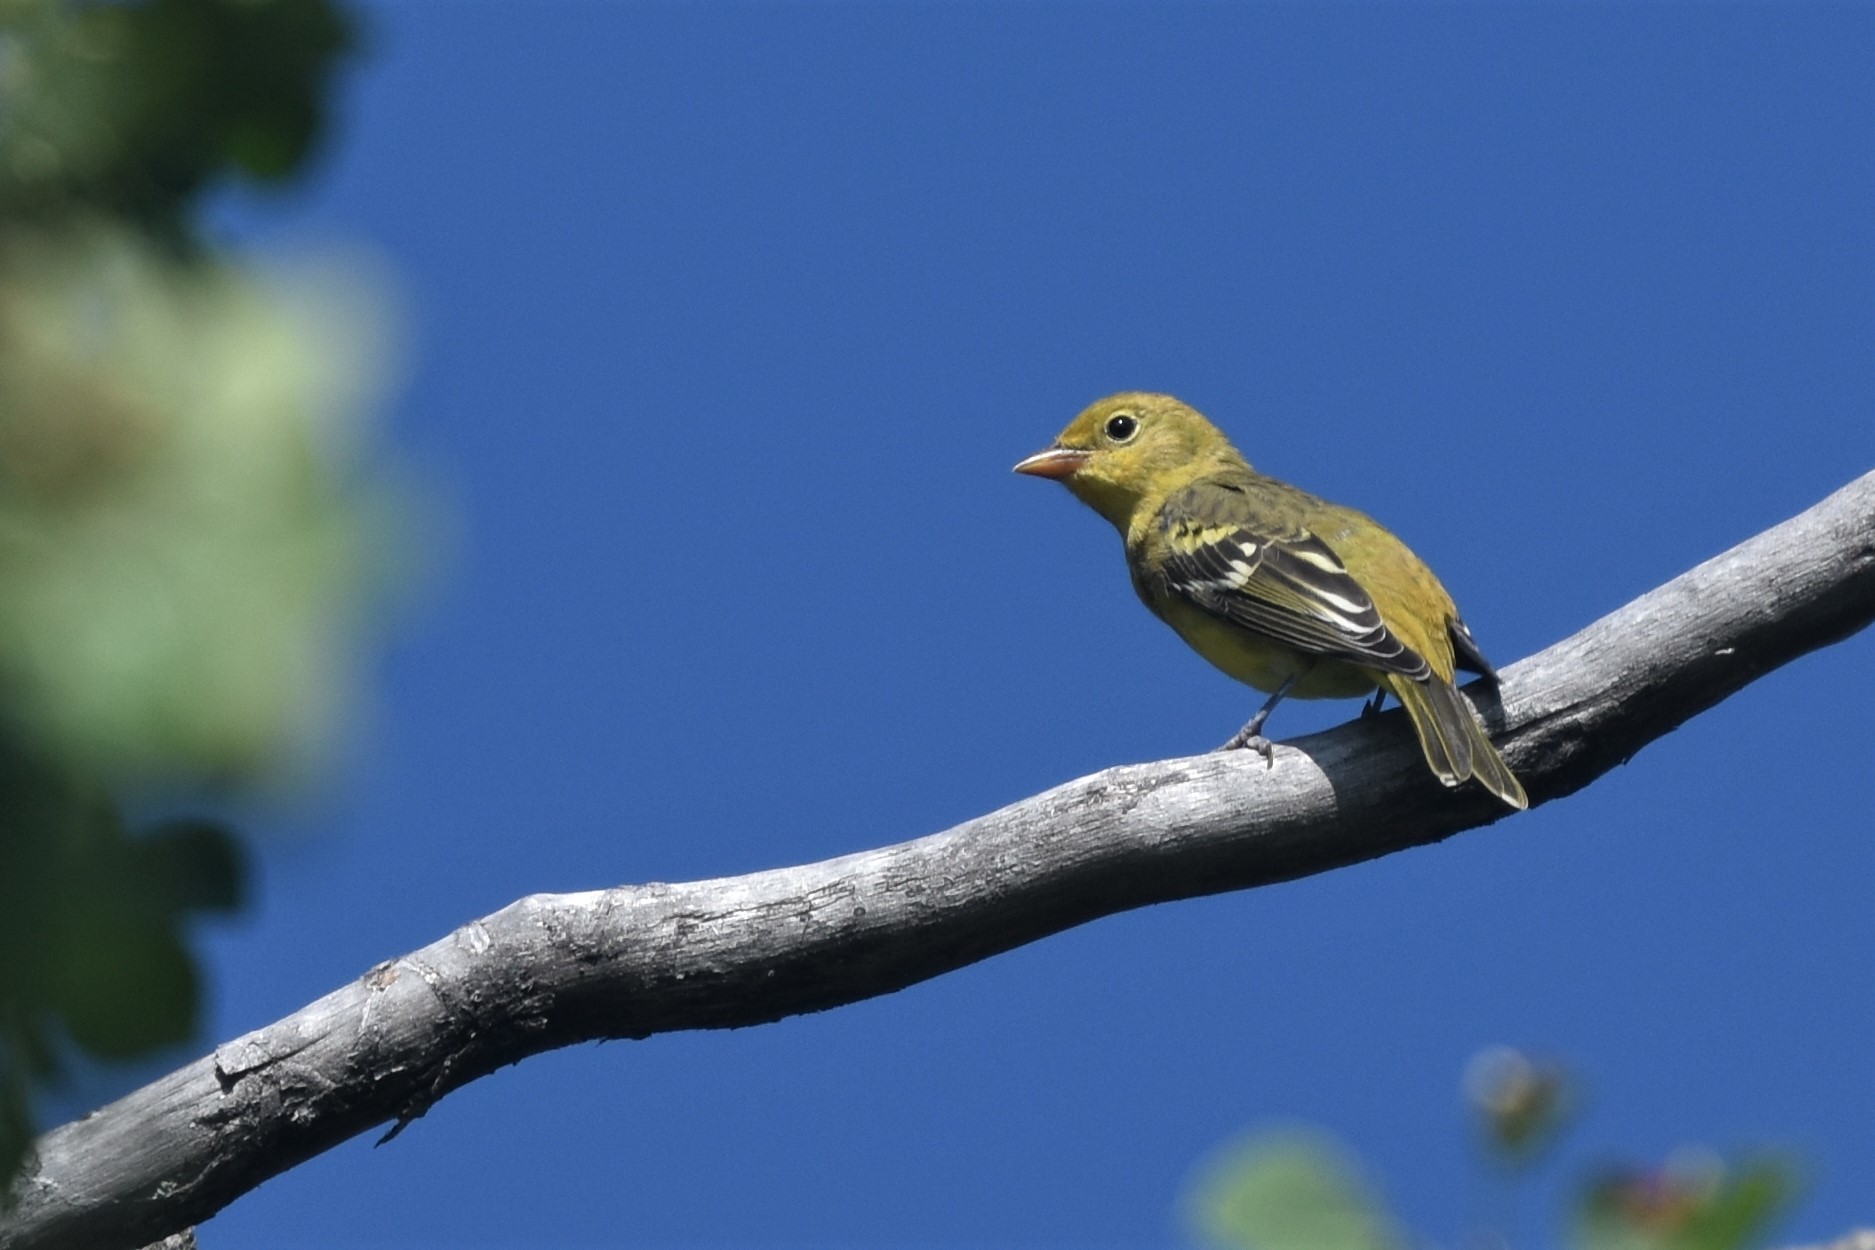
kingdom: Animalia
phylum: Chordata
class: Aves
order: Passeriformes
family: Cardinalidae
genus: Piranga
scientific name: Piranga ludoviciana
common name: Western tanager
